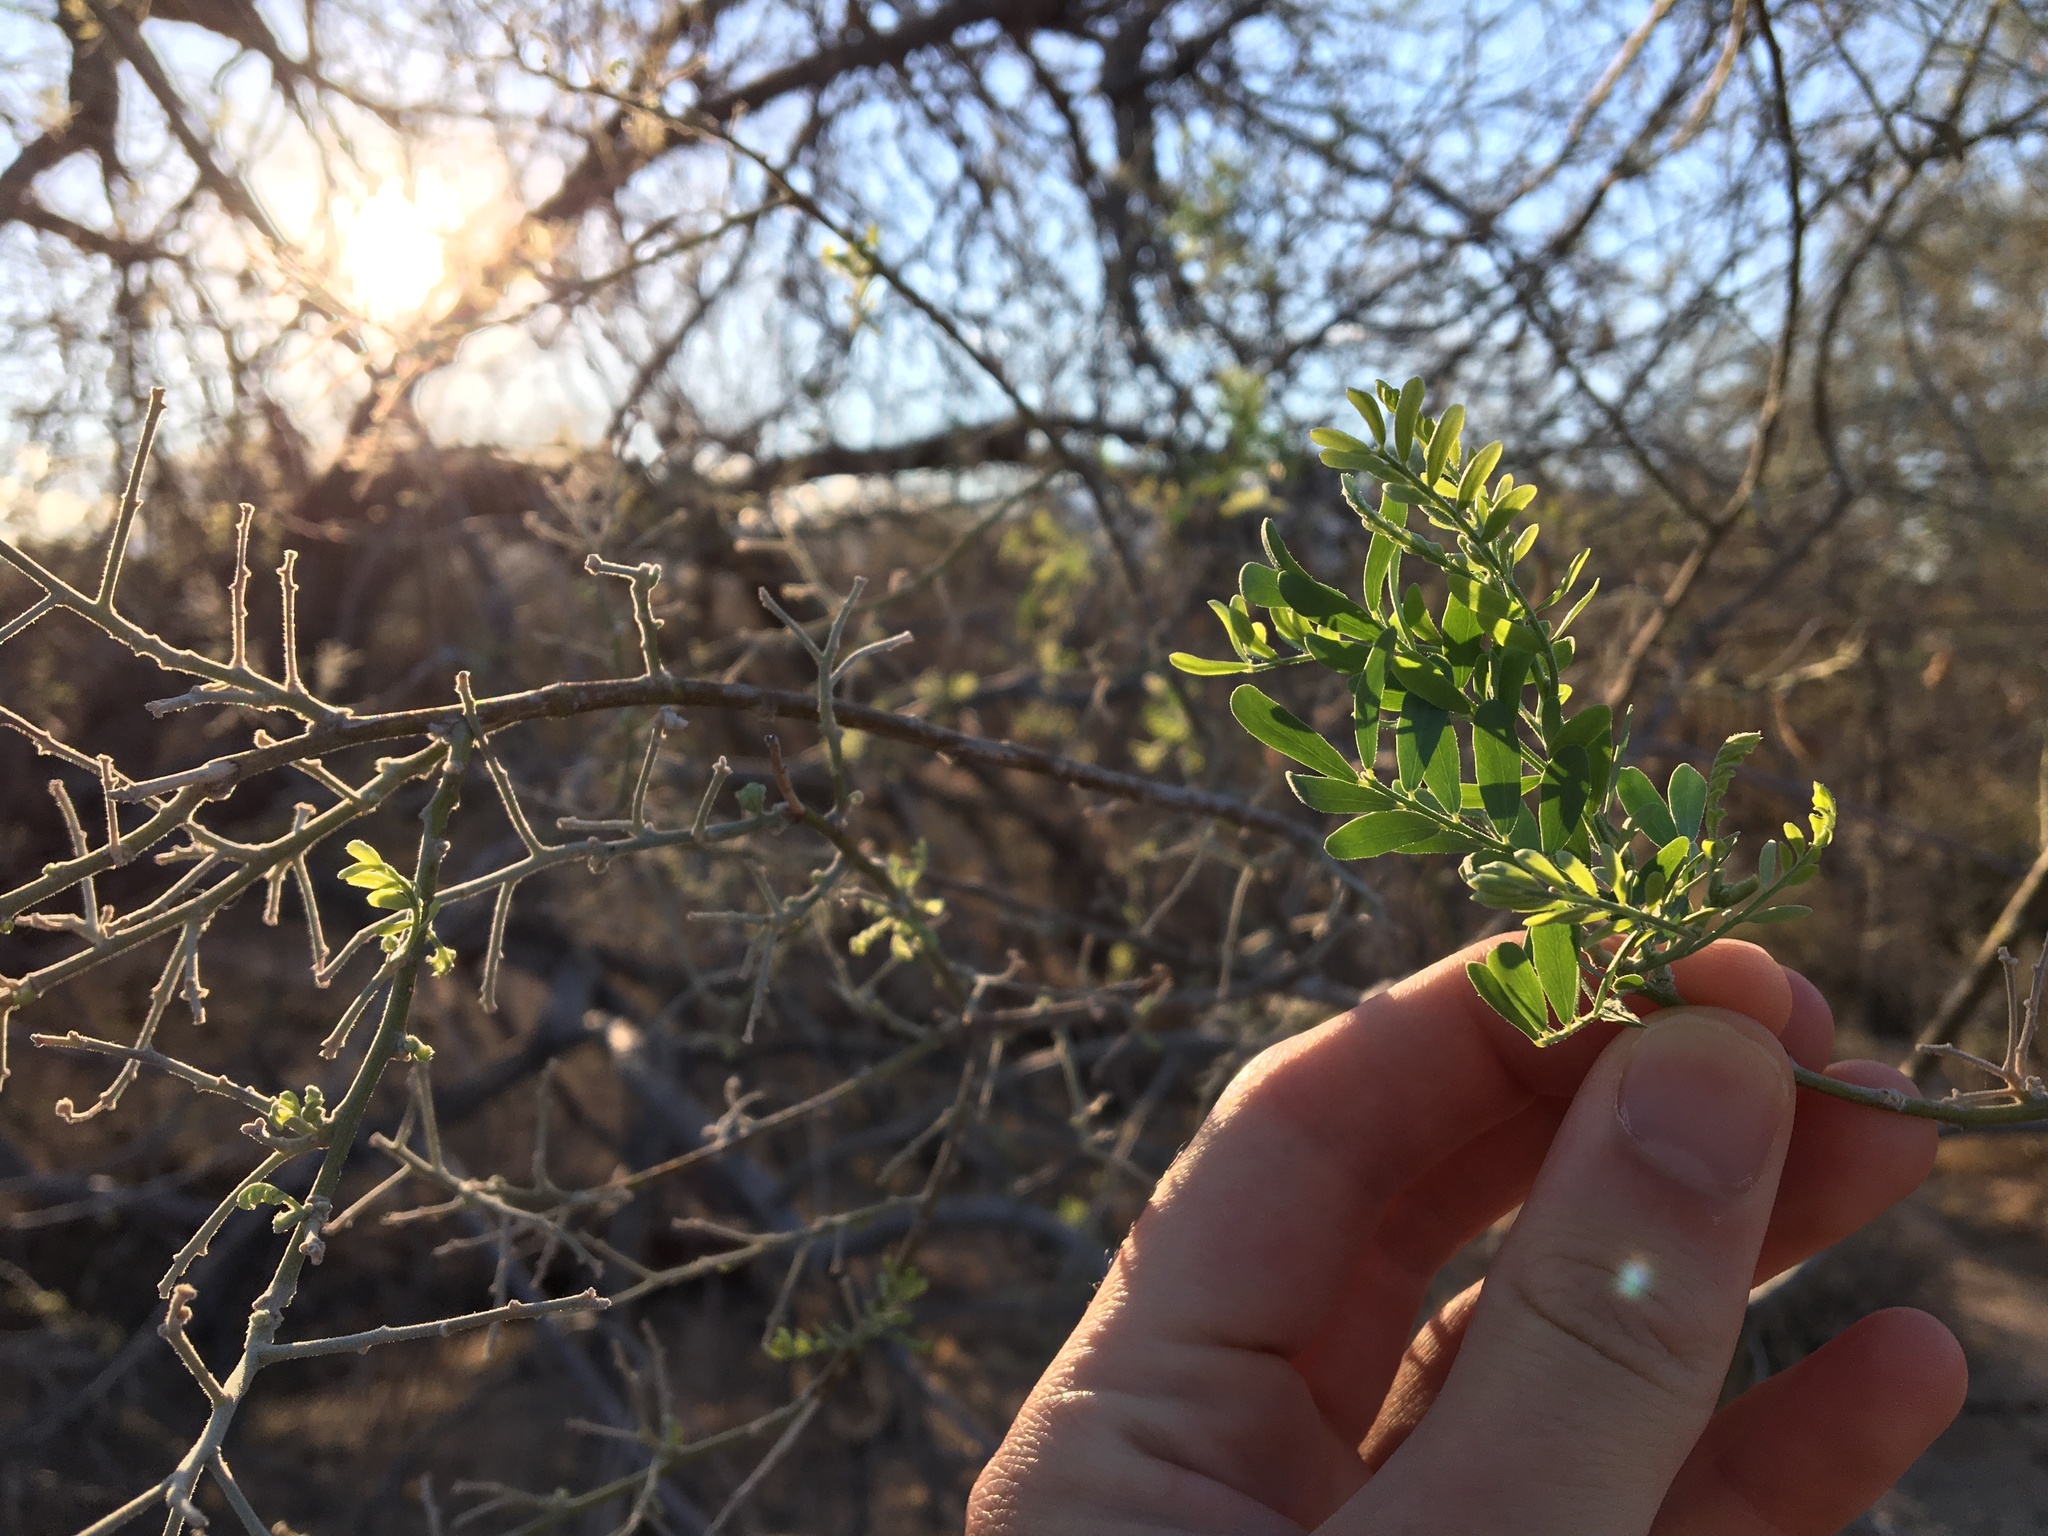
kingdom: Plantae
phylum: Tracheophyta
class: Magnoliopsida
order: Fabales
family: Fabaceae
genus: Olneya
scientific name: Olneya tesota
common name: Desert ironwood
